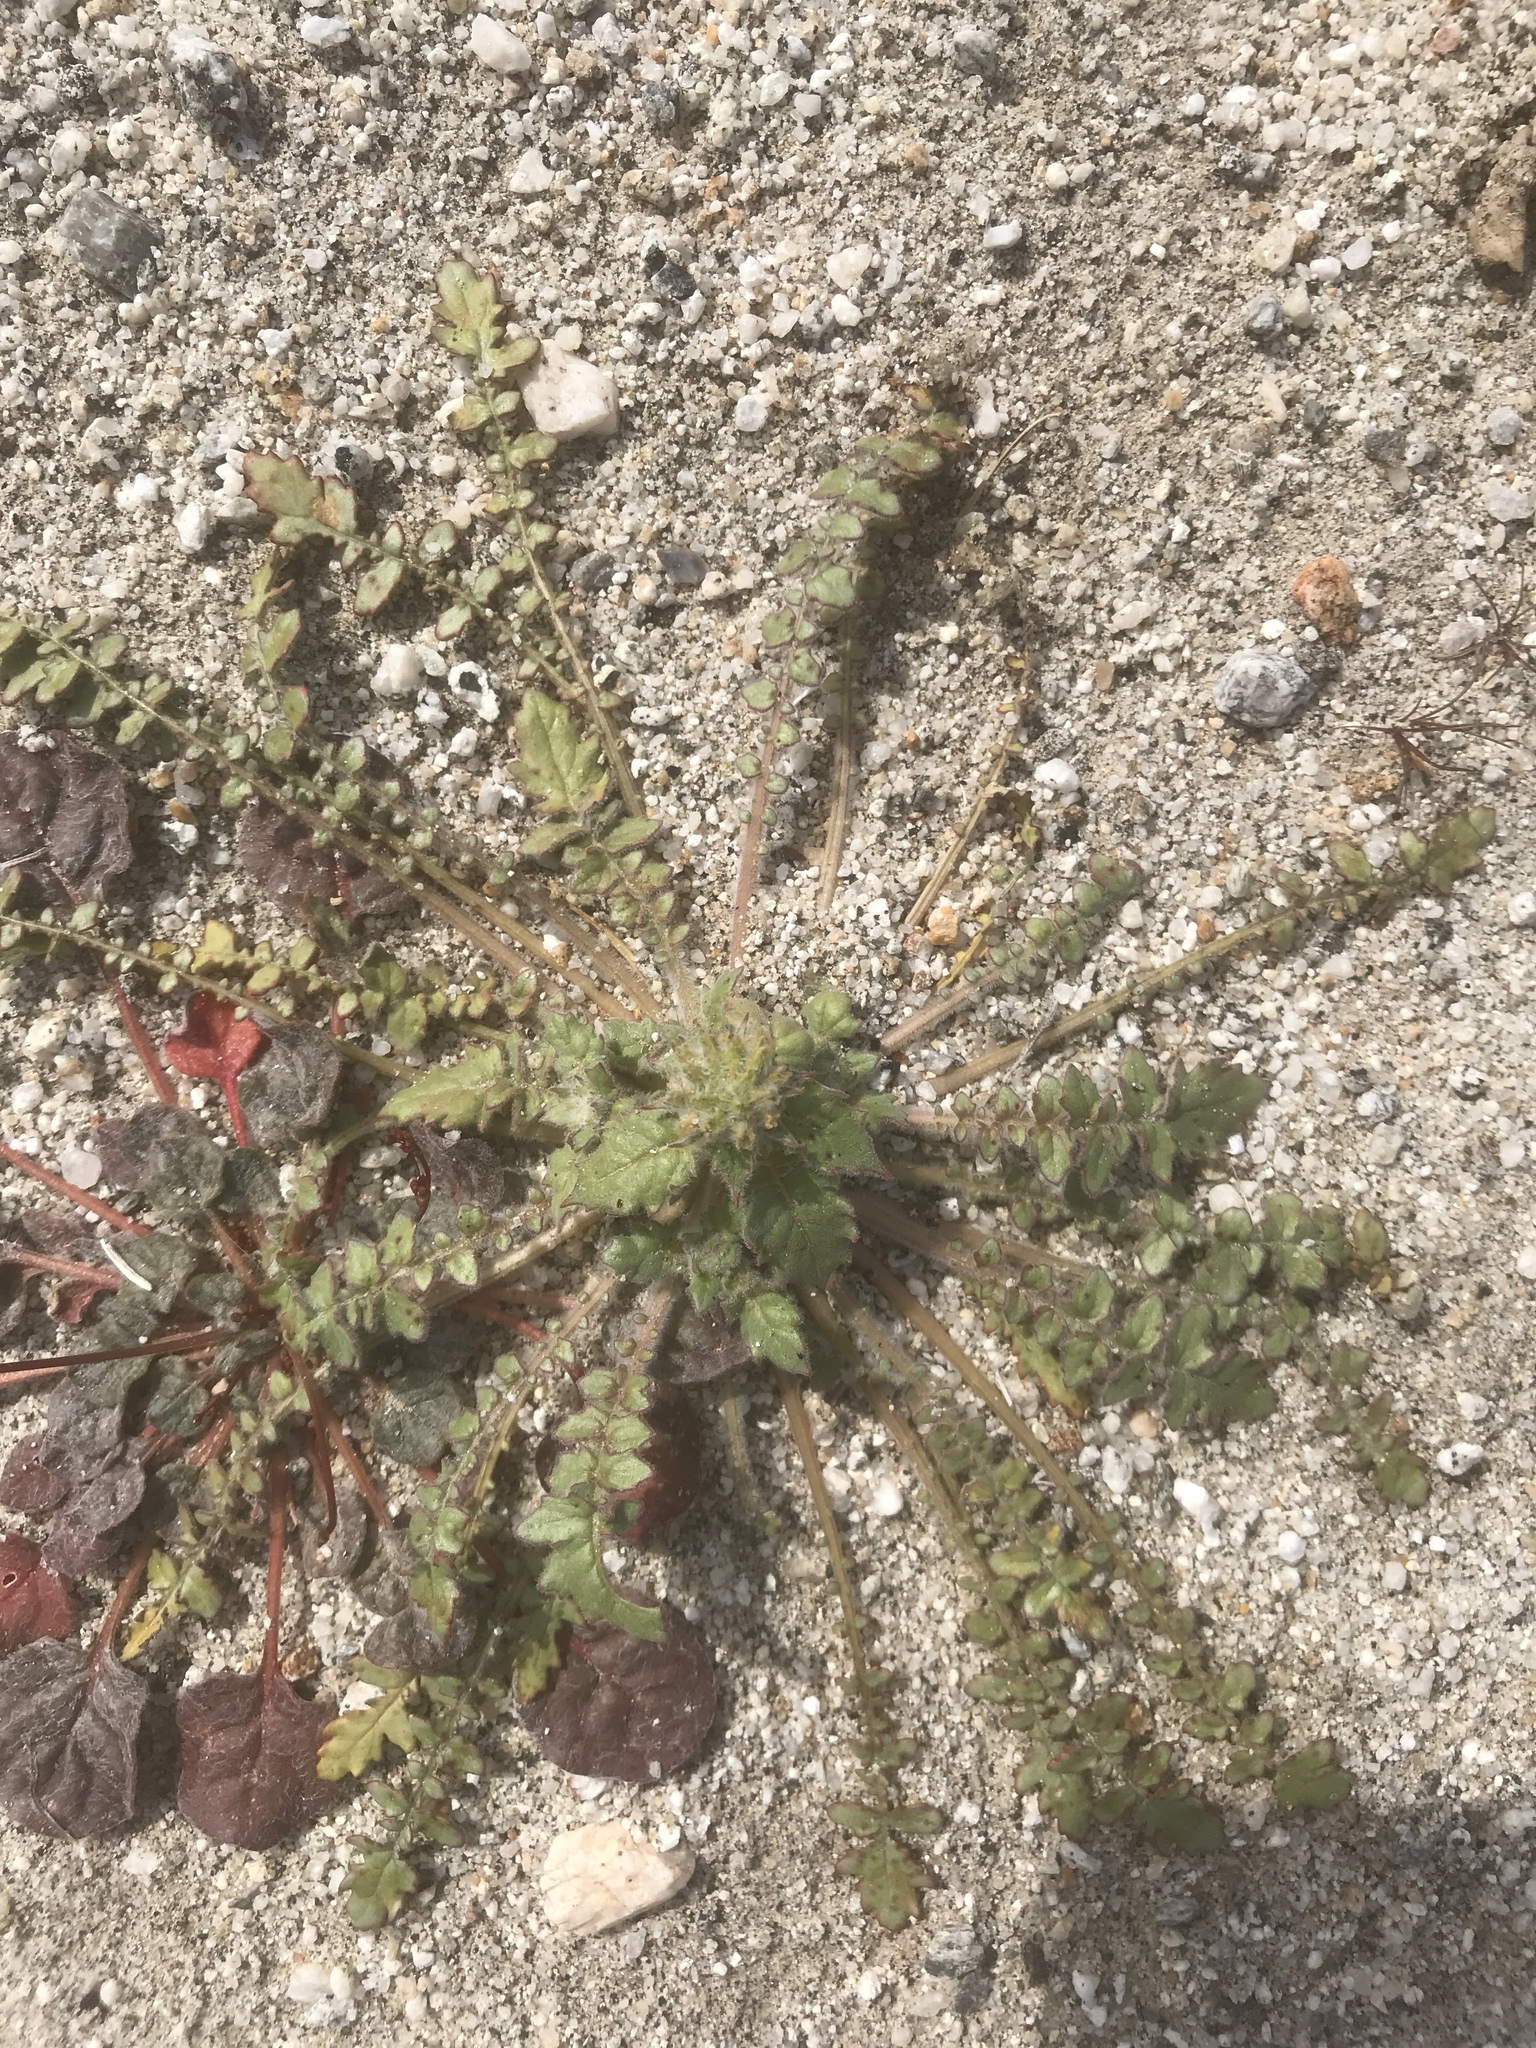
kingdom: Plantae
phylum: Tracheophyta
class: Magnoliopsida
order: Myrtales
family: Onagraceae
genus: Chylismia
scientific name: Chylismia claviformis
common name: Browneyes
